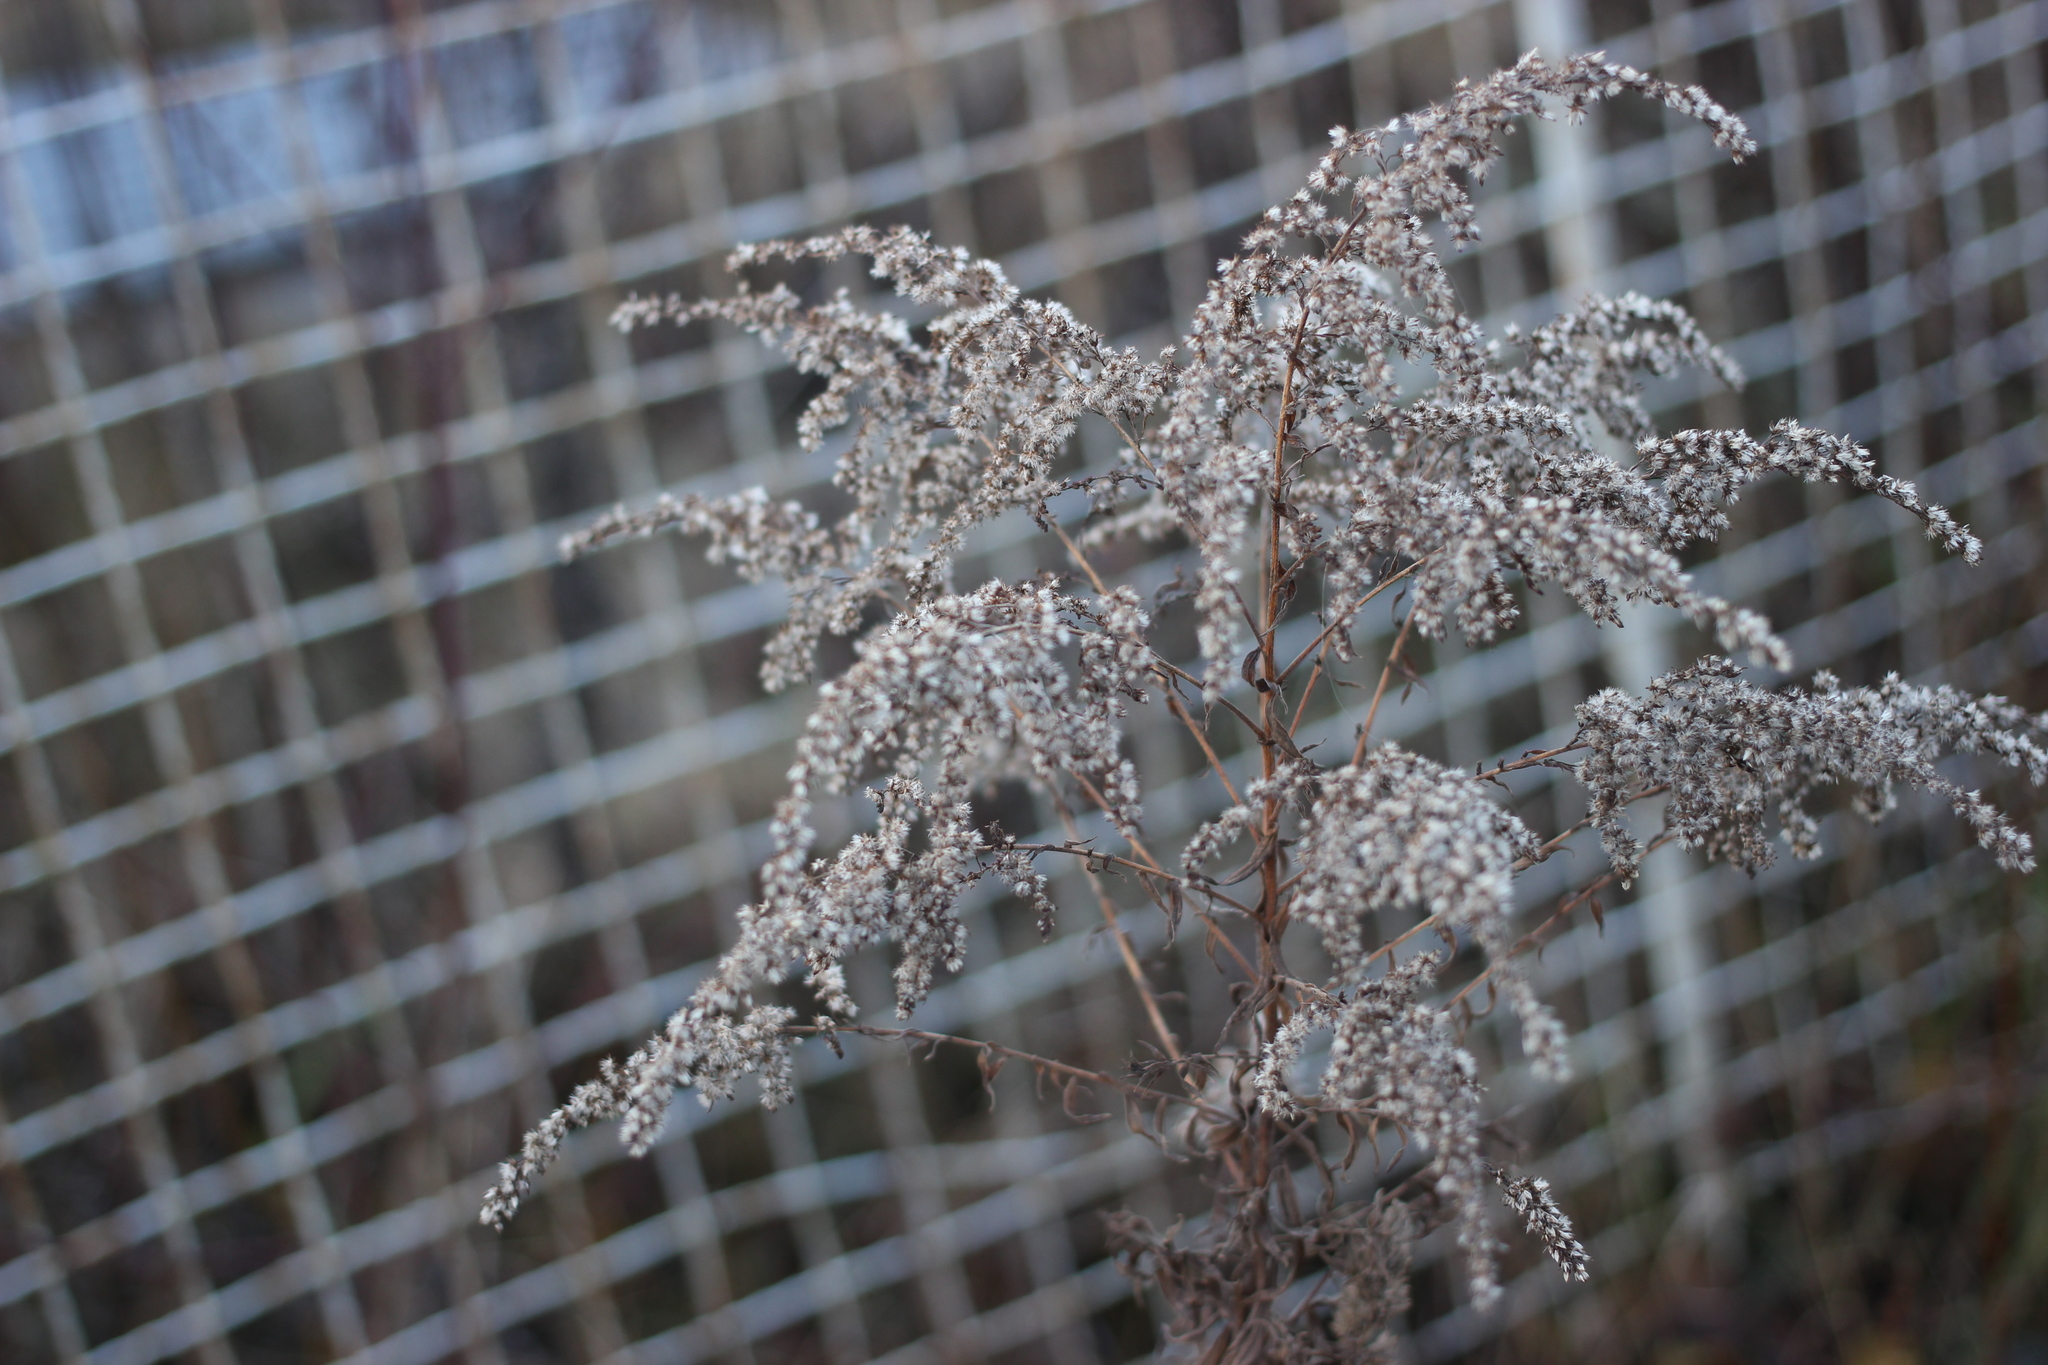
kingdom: Plantae
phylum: Tracheophyta
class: Magnoliopsida
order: Asterales
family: Asteraceae
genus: Solidago
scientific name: Solidago canadensis
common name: Canada goldenrod
